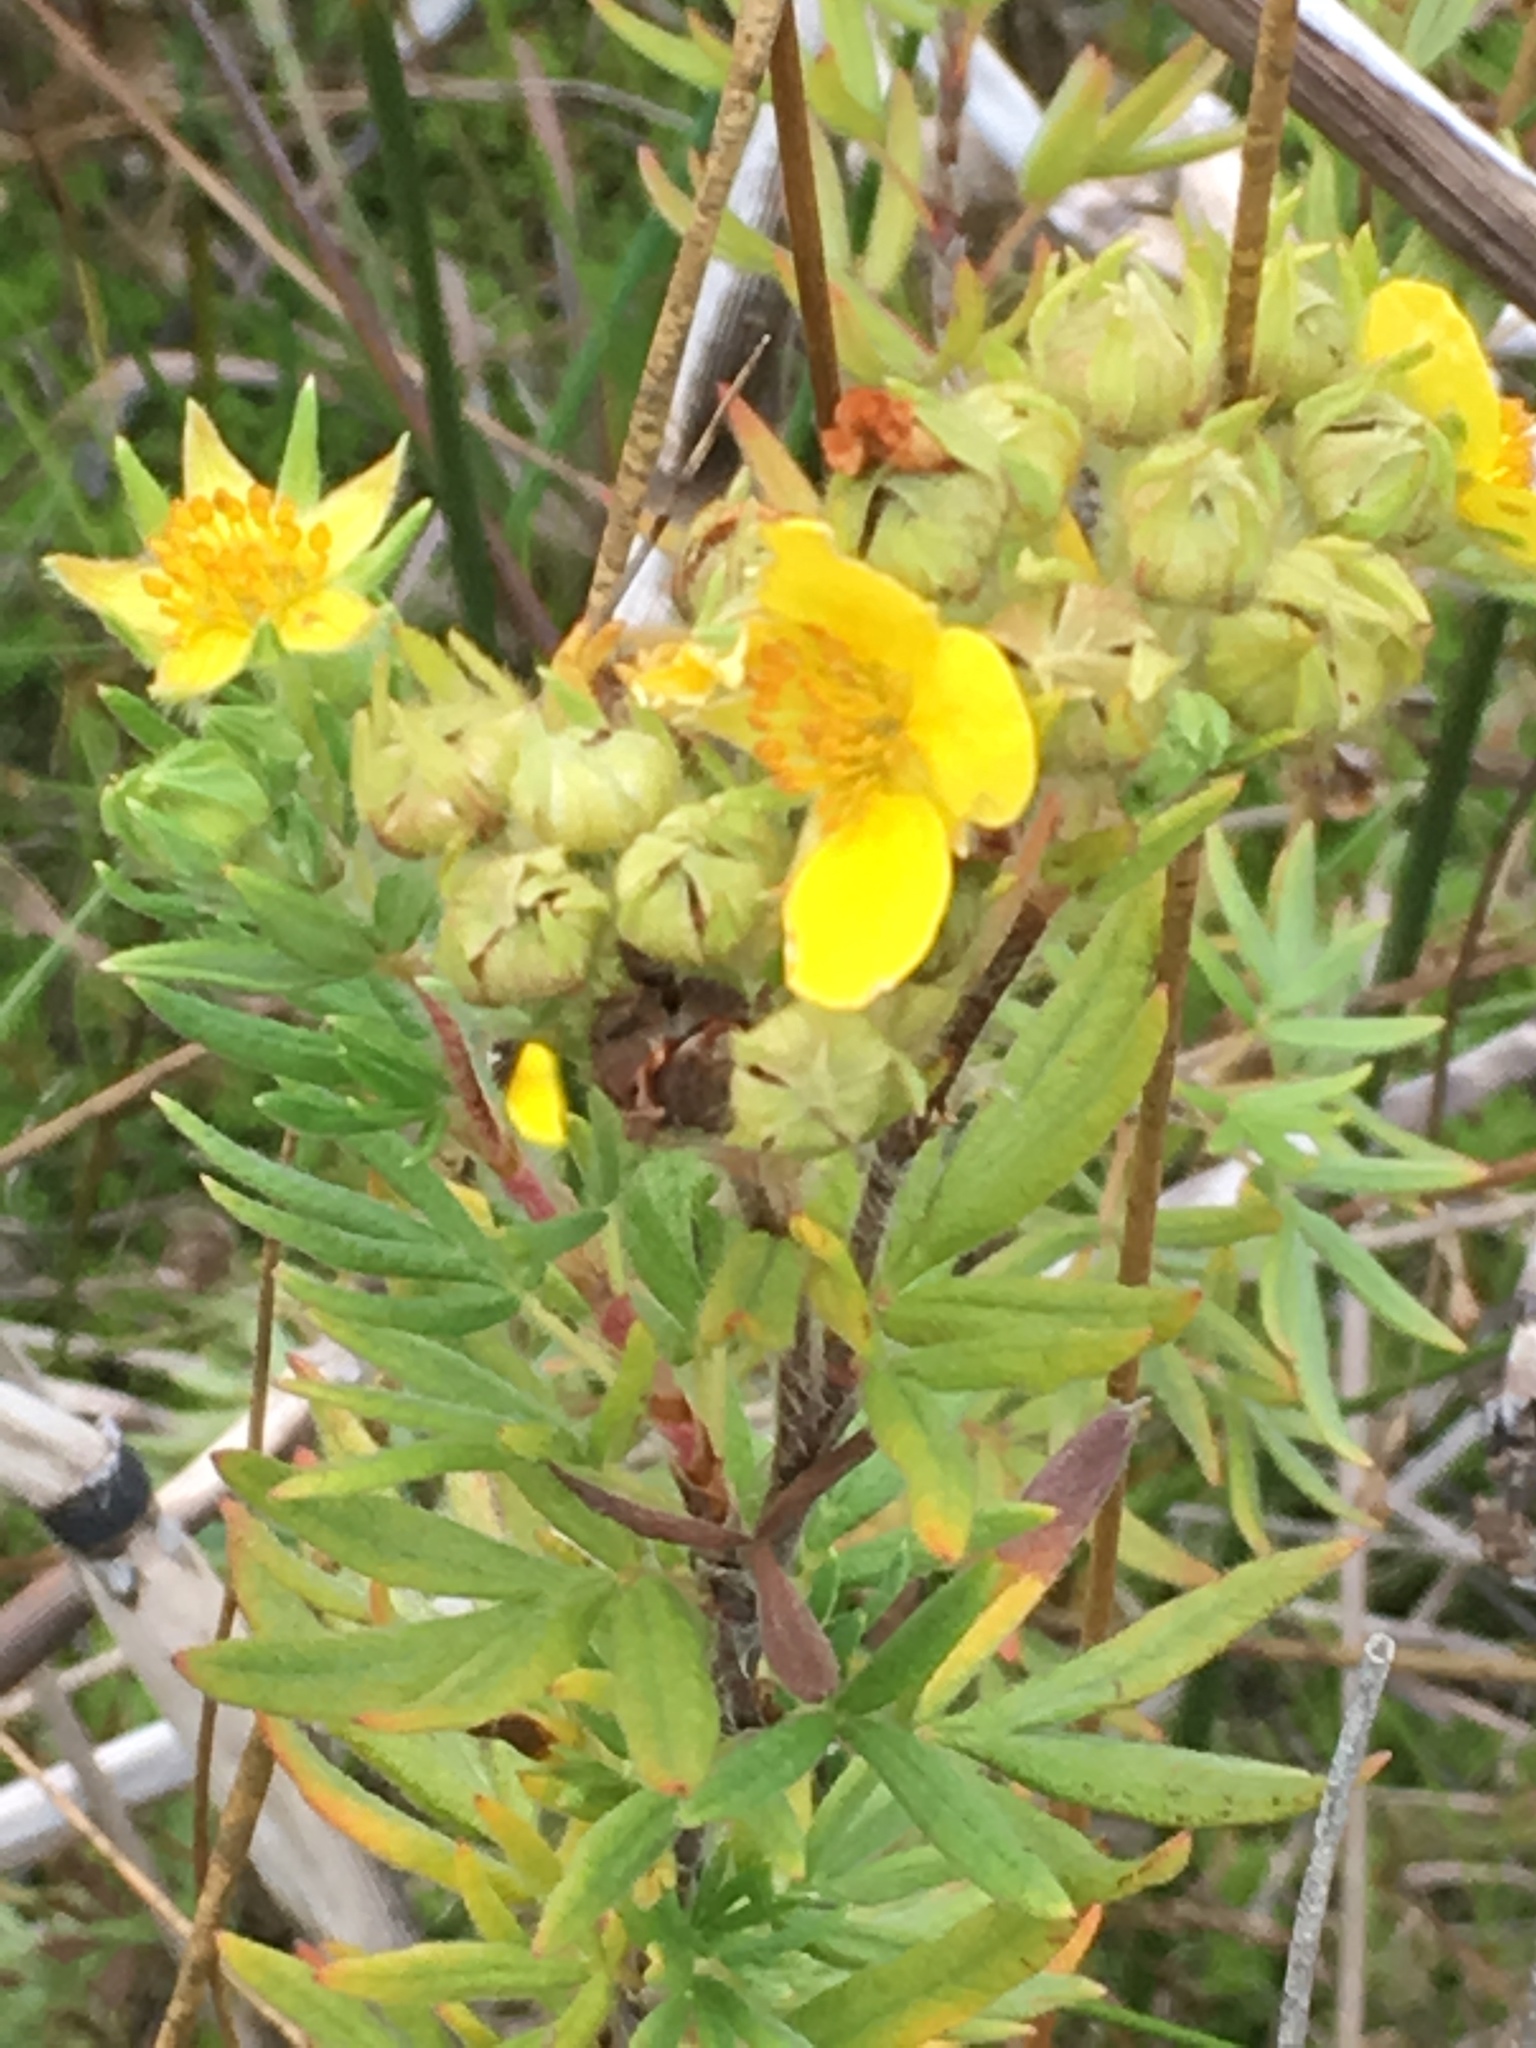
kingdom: Plantae
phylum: Tracheophyta
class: Magnoliopsida
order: Rosales
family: Rosaceae
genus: Dasiphora
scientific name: Dasiphora fruticosa
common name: Shrubby cinquefoil
